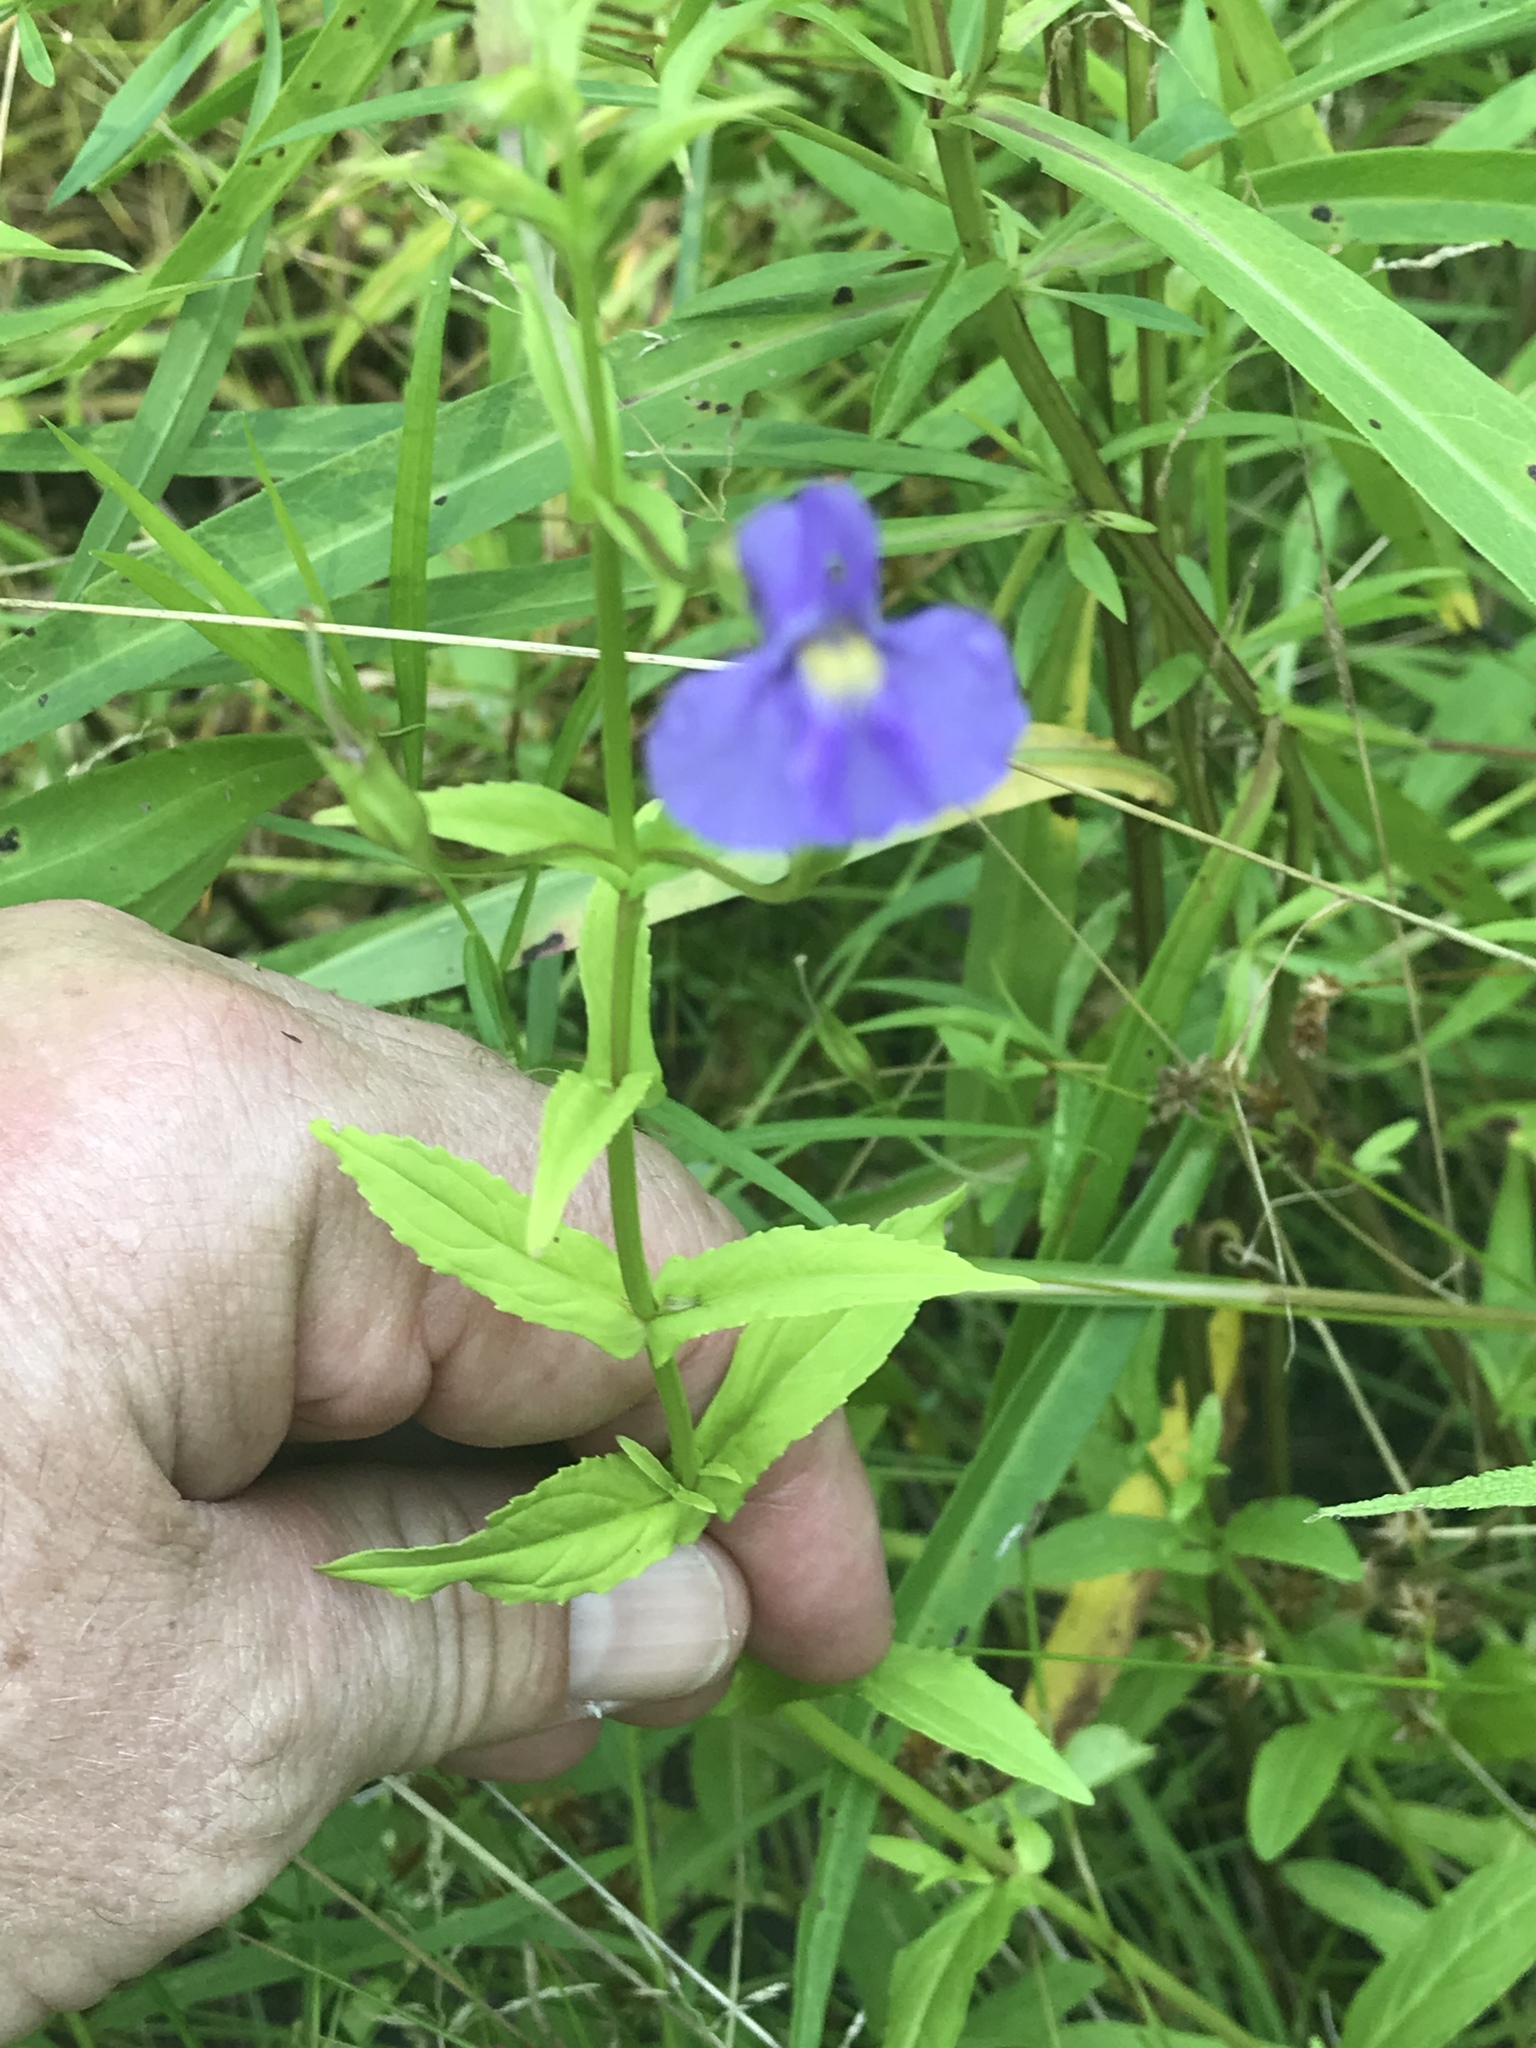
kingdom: Plantae
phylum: Tracheophyta
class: Magnoliopsida
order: Lamiales
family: Phrymaceae
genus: Mimulus
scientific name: Mimulus ringens
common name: Allegheny monkeyflower
